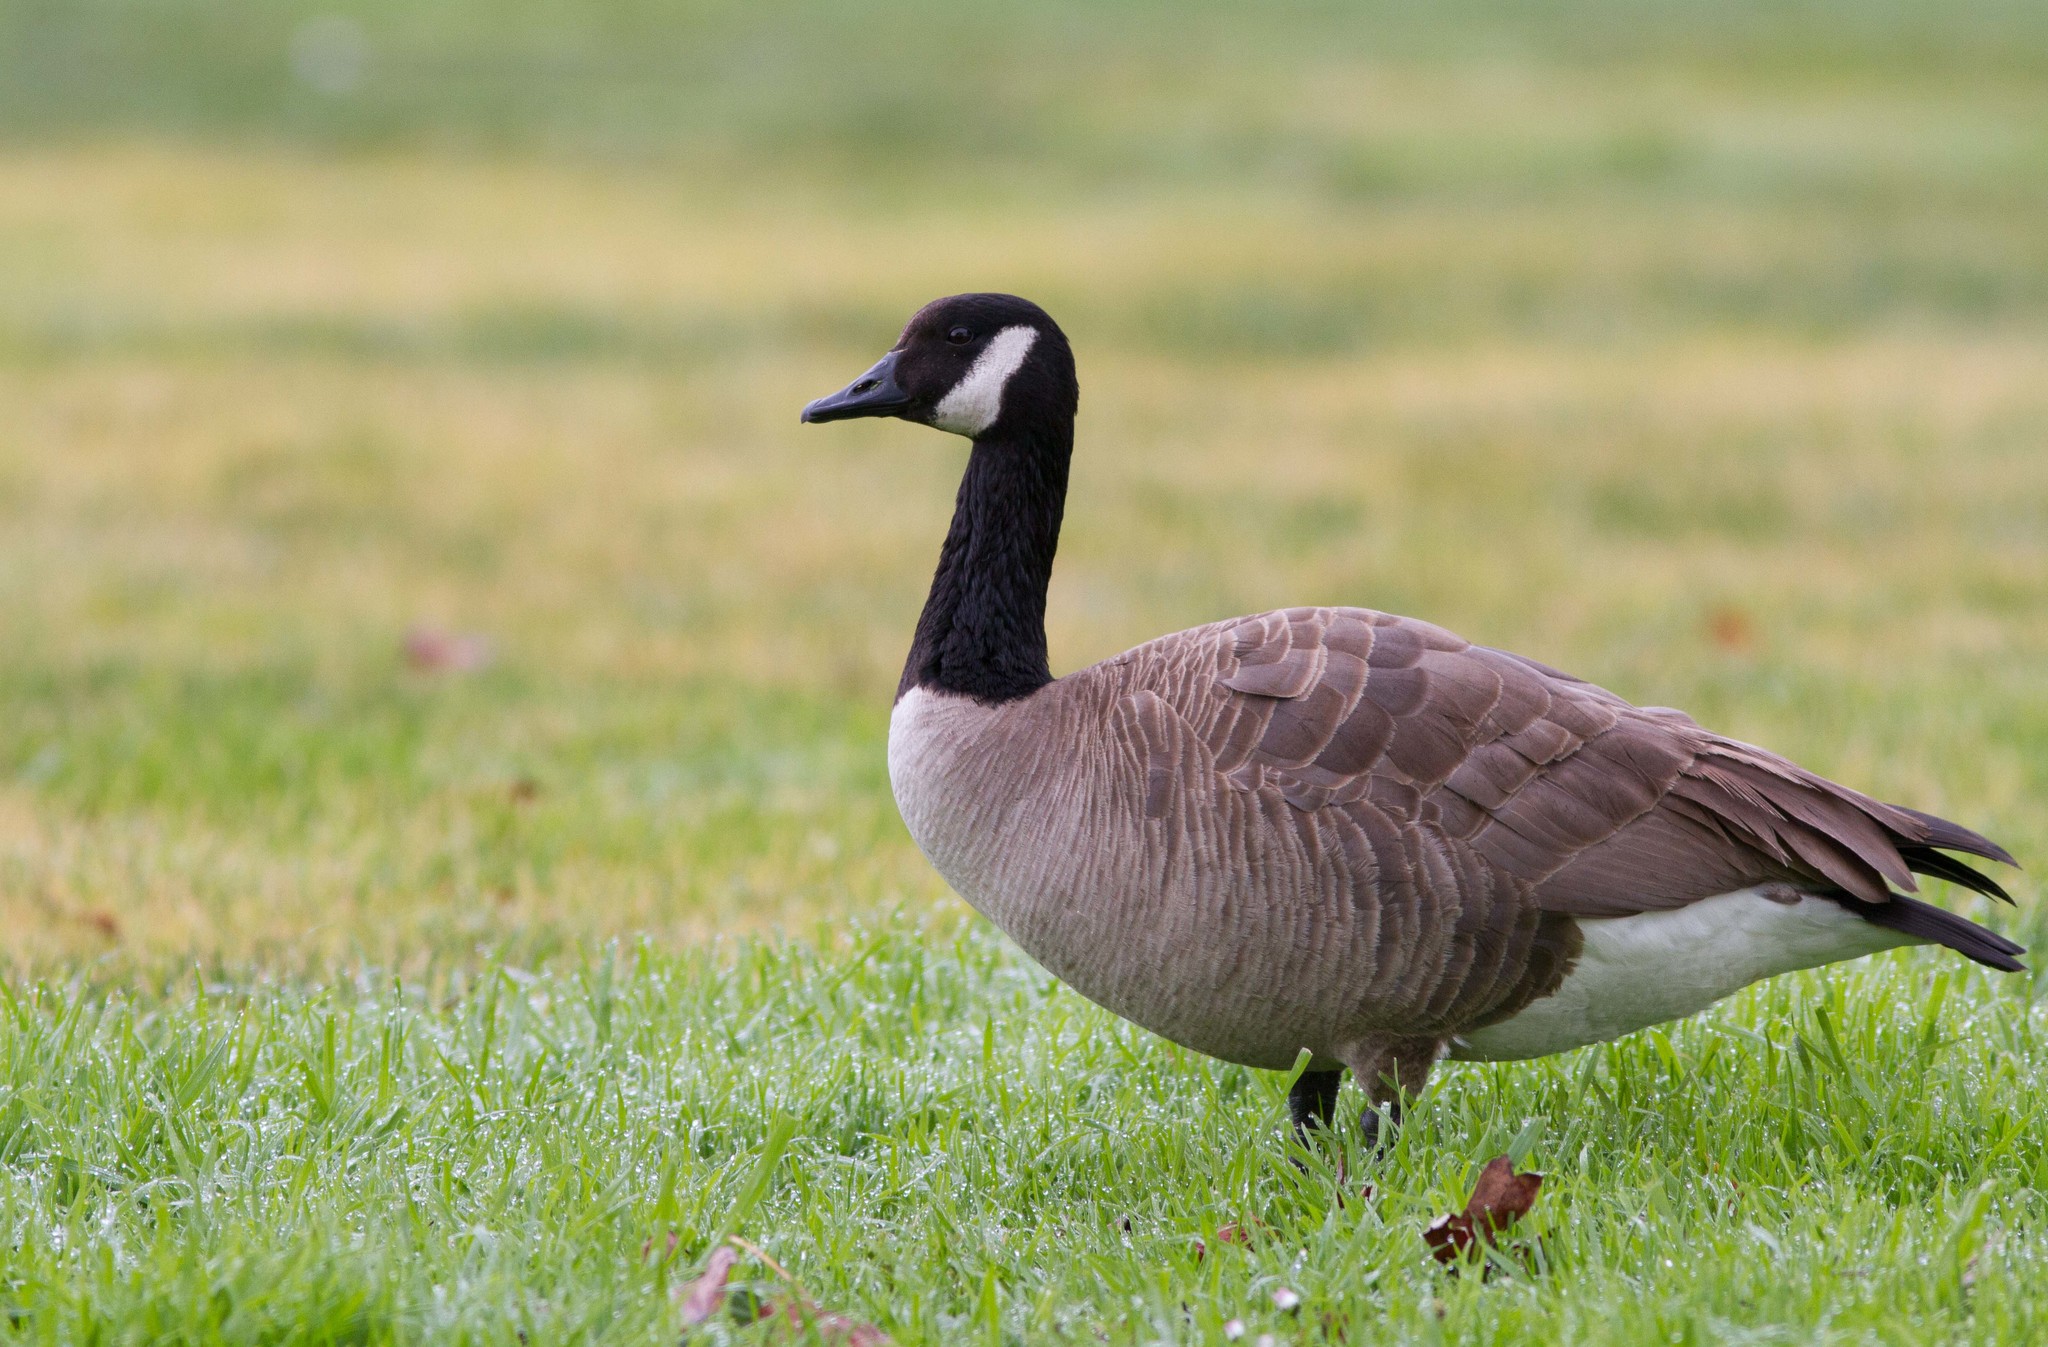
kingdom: Animalia
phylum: Chordata
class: Aves
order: Anseriformes
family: Anatidae
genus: Branta
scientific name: Branta canadensis
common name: Canada goose
